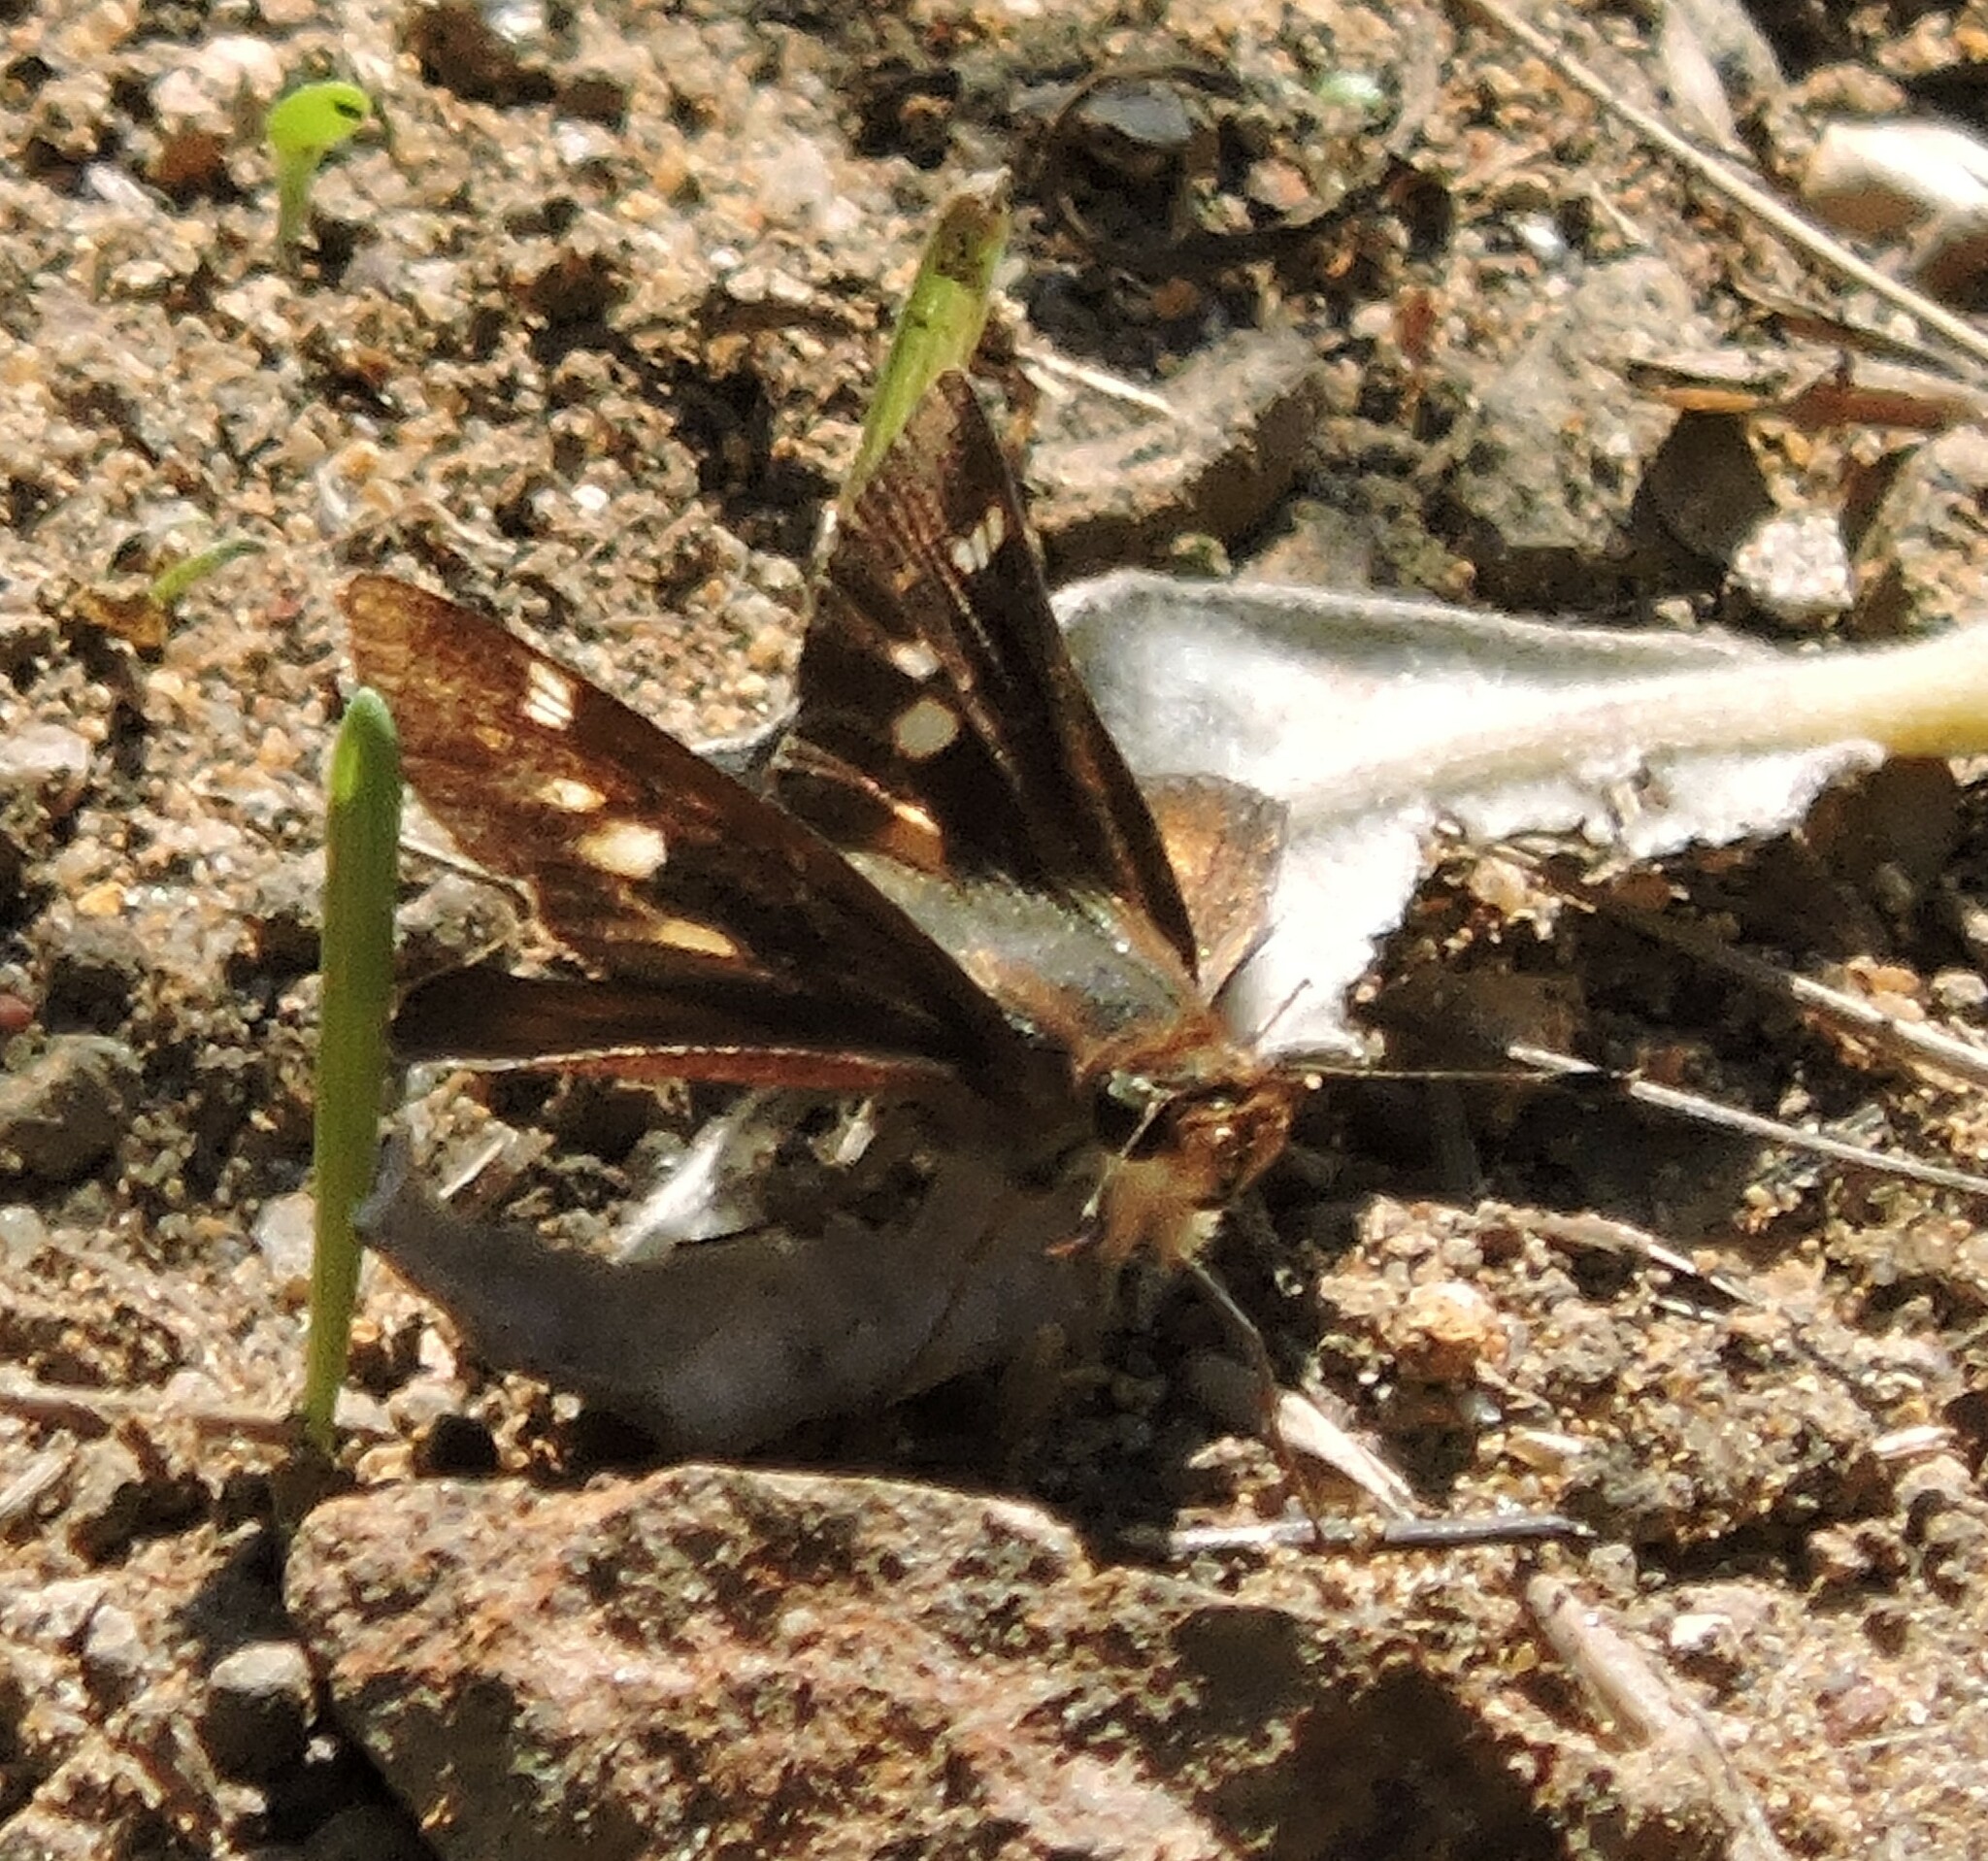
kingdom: Animalia
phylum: Arthropoda
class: Insecta
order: Lepidoptera
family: Hesperiidae
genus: Lon
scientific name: Lon melane
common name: Umber skipper
